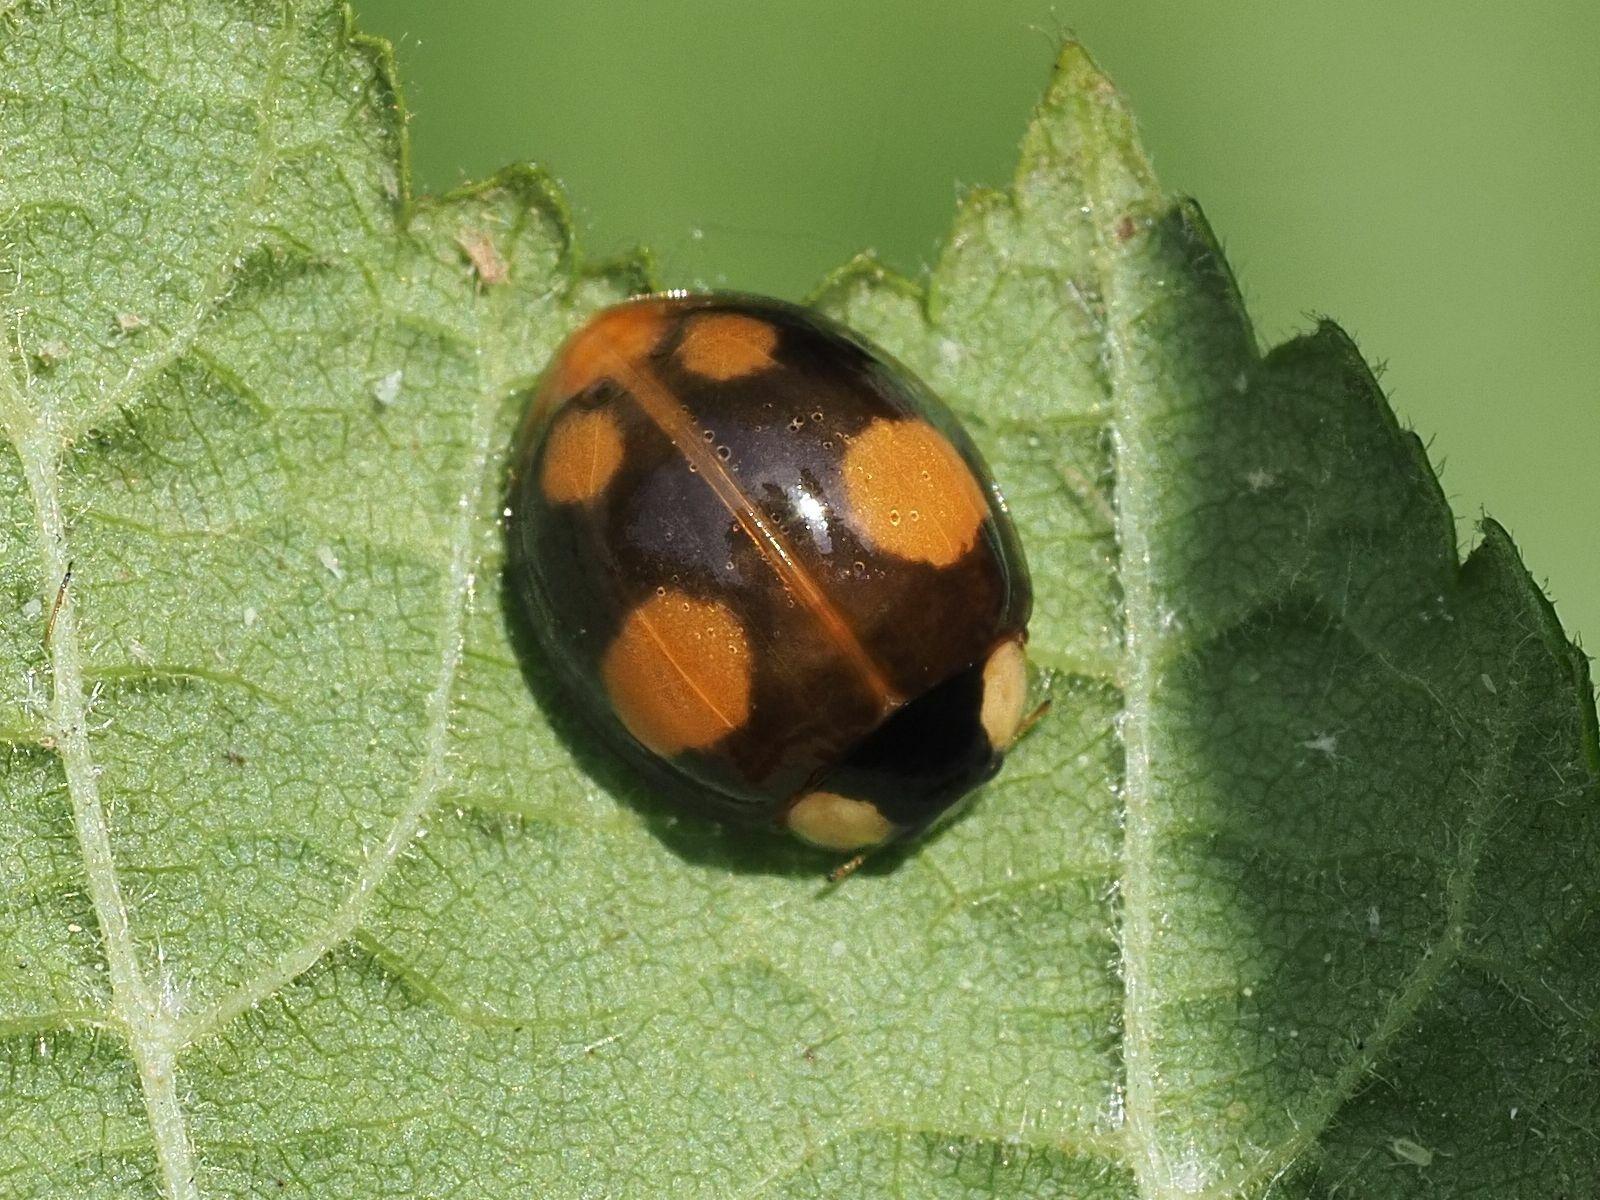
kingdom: Animalia
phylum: Arthropoda
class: Insecta
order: Coleoptera
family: Coccinellidae
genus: Harmonia
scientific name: Harmonia axyridis
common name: Harlequin ladybird
